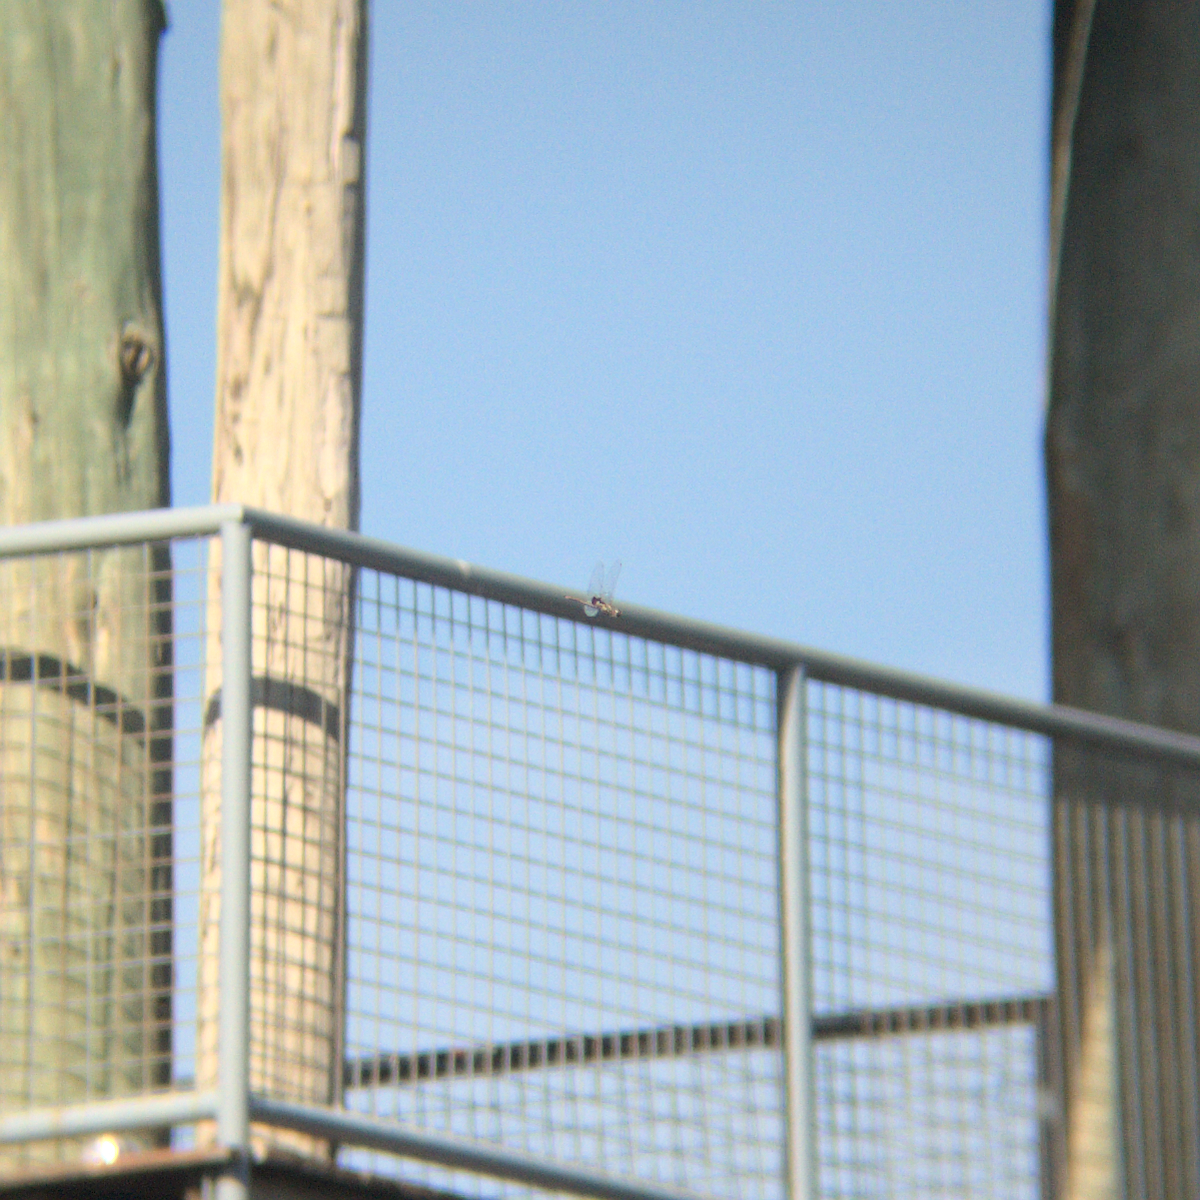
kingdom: Animalia
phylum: Arthropoda
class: Insecta
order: Odonata
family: Libellulidae
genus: Tramea
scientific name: Tramea loewii
